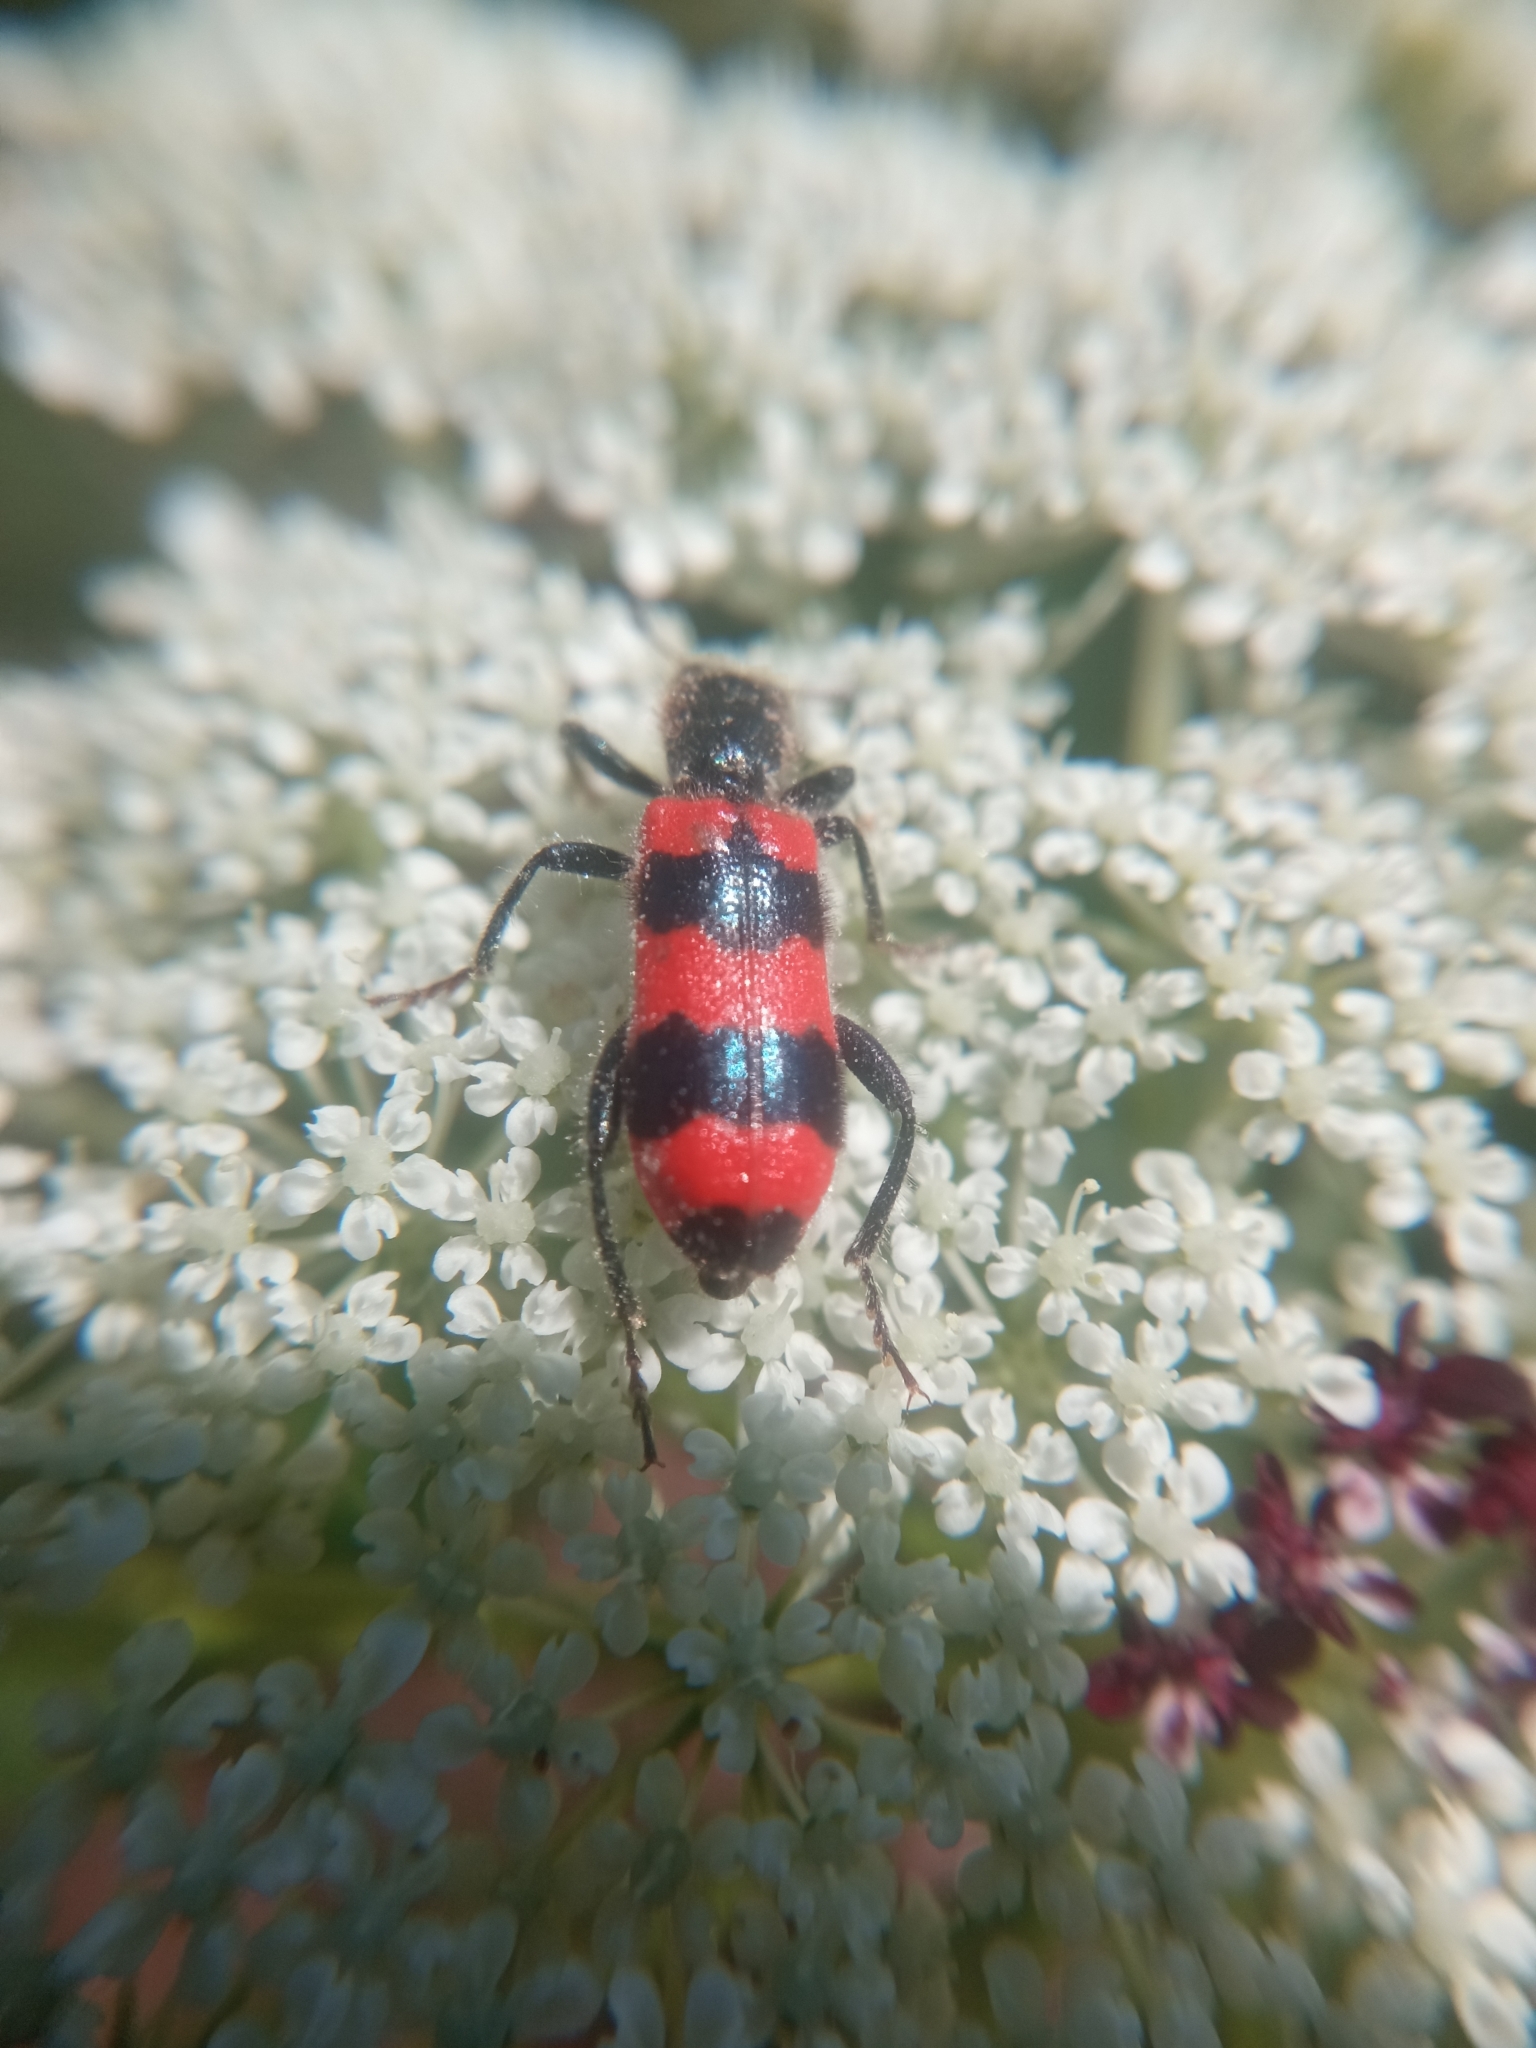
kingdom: Animalia
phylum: Arthropoda
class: Insecta
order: Coleoptera
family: Cleridae
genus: Trichodes
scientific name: Trichodes apiarius
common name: Bee-eating beetle
